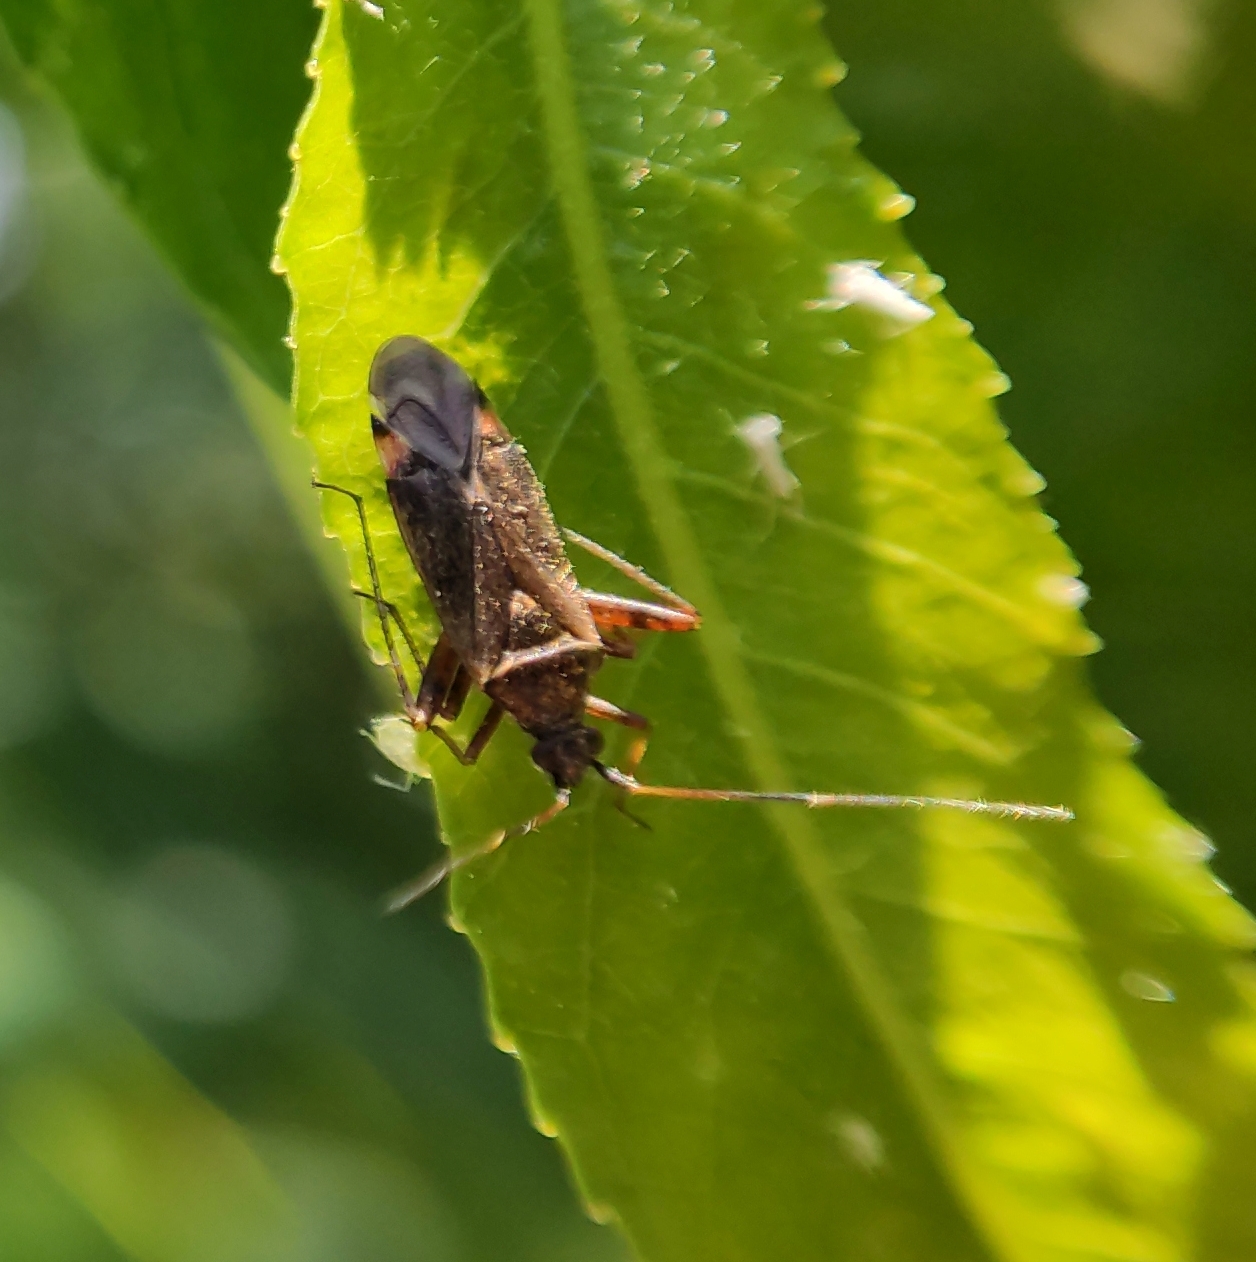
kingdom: Animalia
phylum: Arthropoda
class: Insecta
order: Hemiptera
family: Miridae
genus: Closterotomus
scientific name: Closterotomus fulvomaculatus
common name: Spotted plant bug
